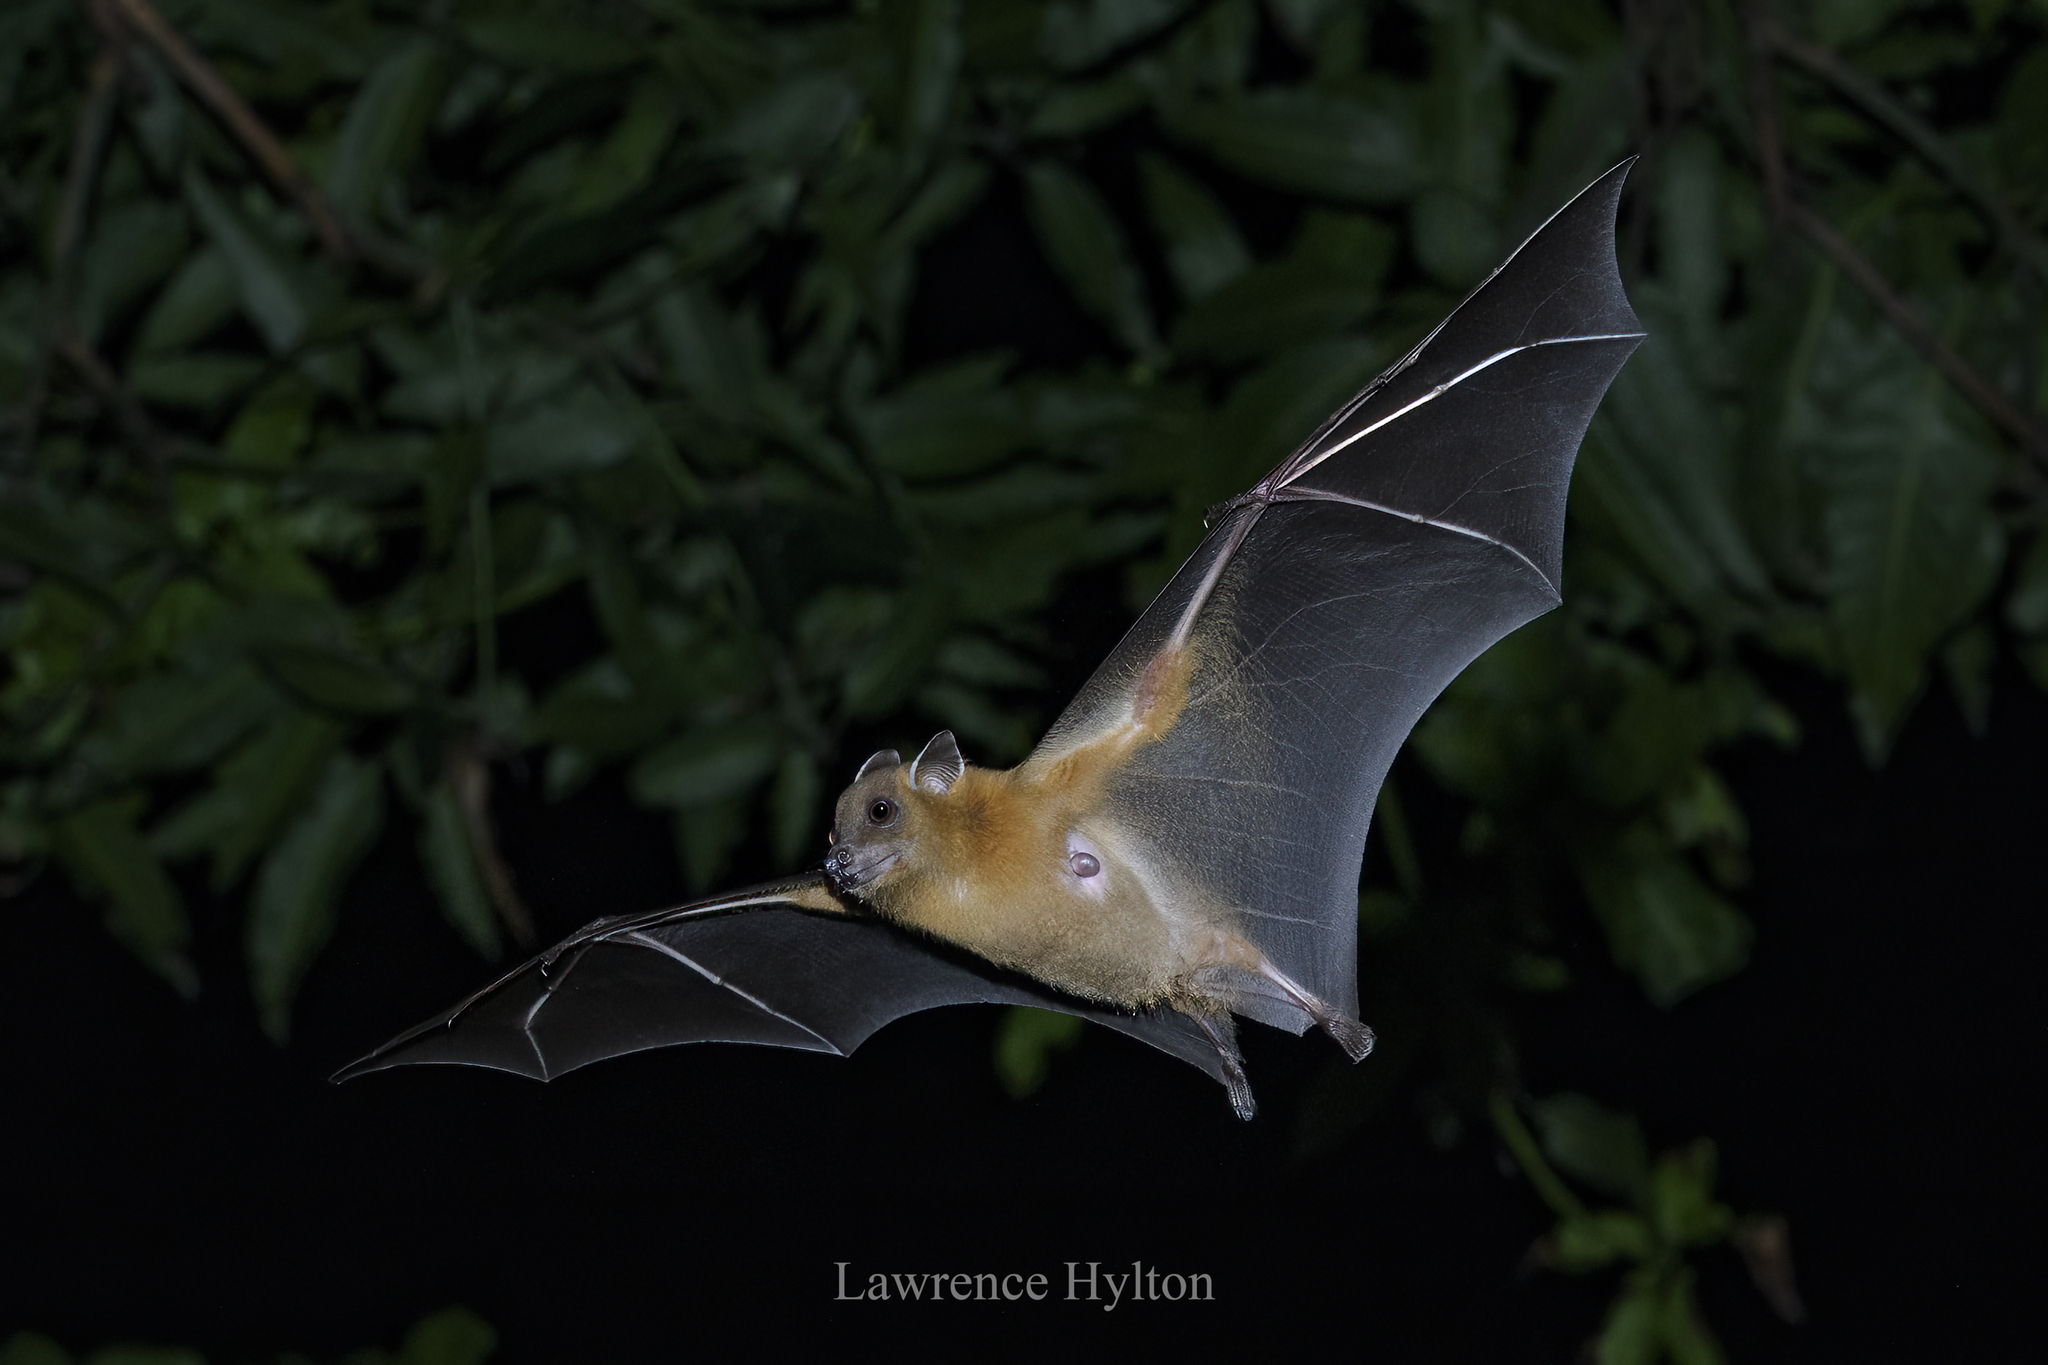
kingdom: Animalia
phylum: Chordata
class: Mammalia
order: Chiroptera
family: Pteropodidae
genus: Cynopterus
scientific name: Cynopterus sphinx
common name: Greater short-nosed fruit bat
